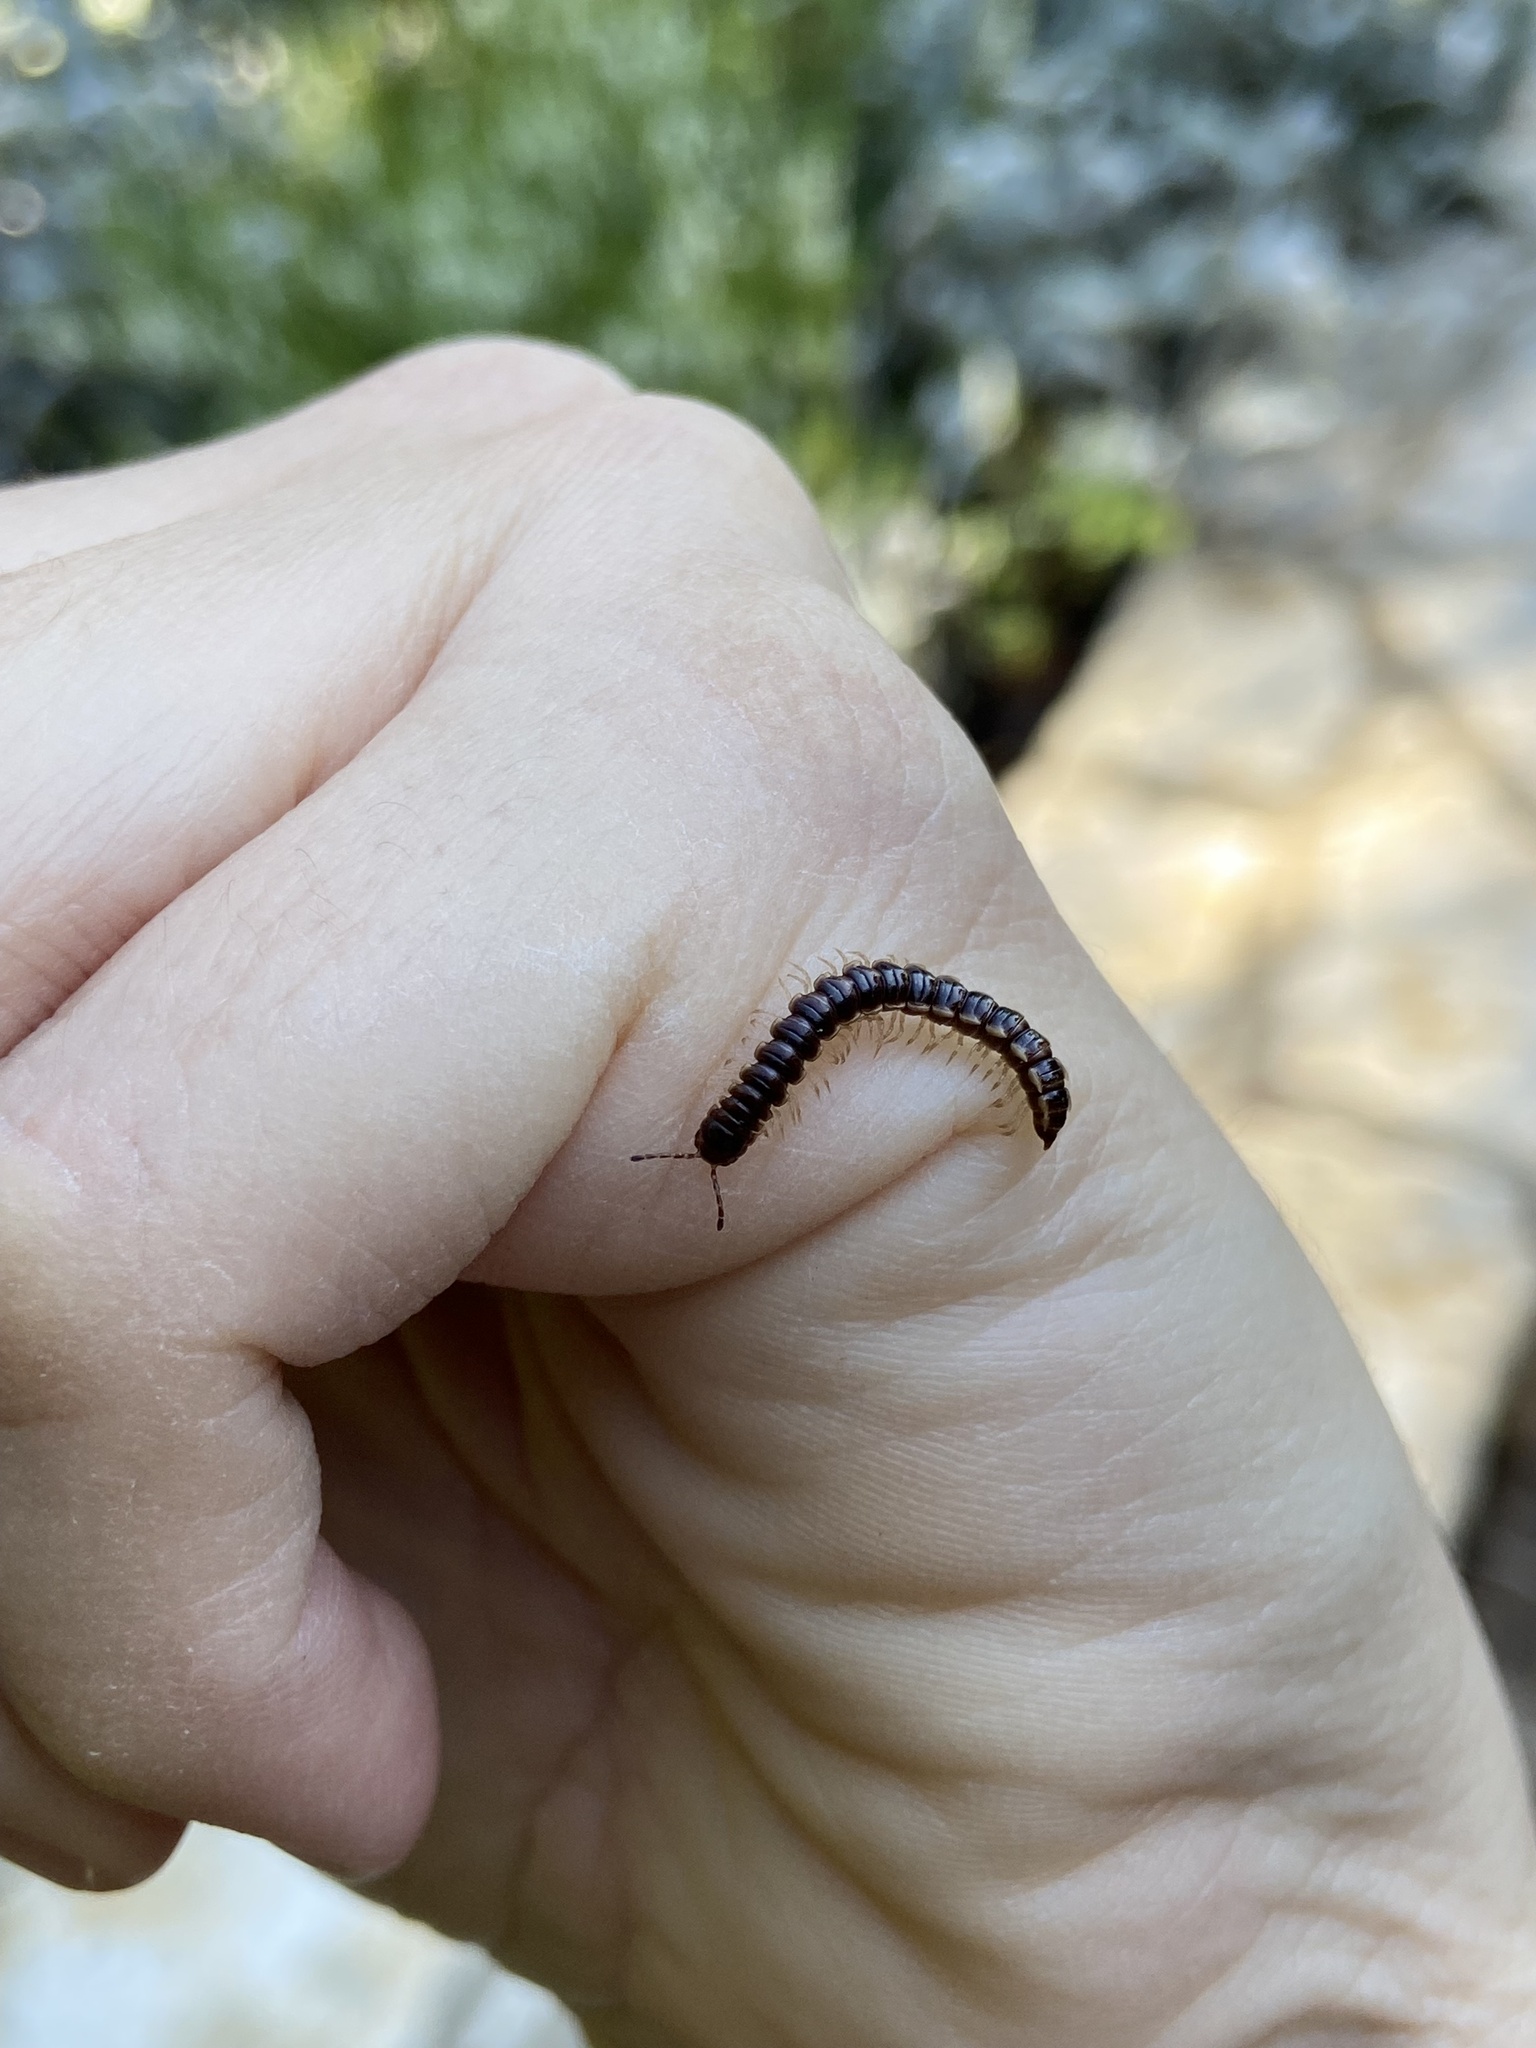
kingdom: Animalia
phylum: Arthropoda
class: Diplopoda
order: Polydesmida
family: Paradoxosomatidae
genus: Oxidus
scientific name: Oxidus gracilis
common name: Greenhouse millipede
